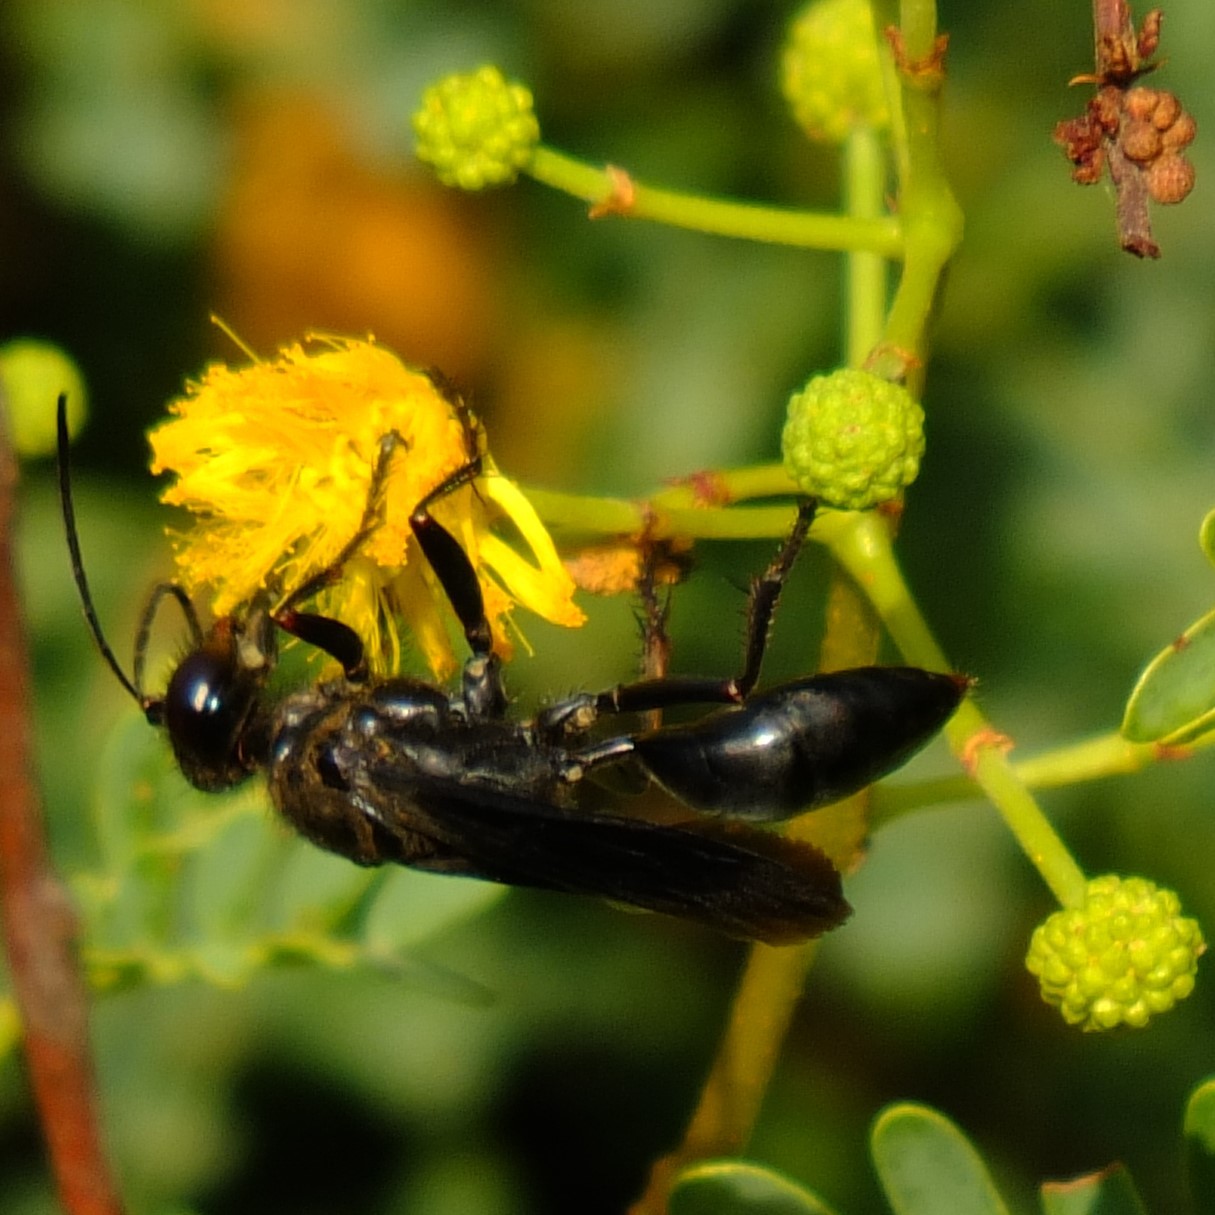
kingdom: Animalia
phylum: Arthropoda
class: Insecta
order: Hymenoptera
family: Sphecidae
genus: Sphex
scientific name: Sphex decipiens
